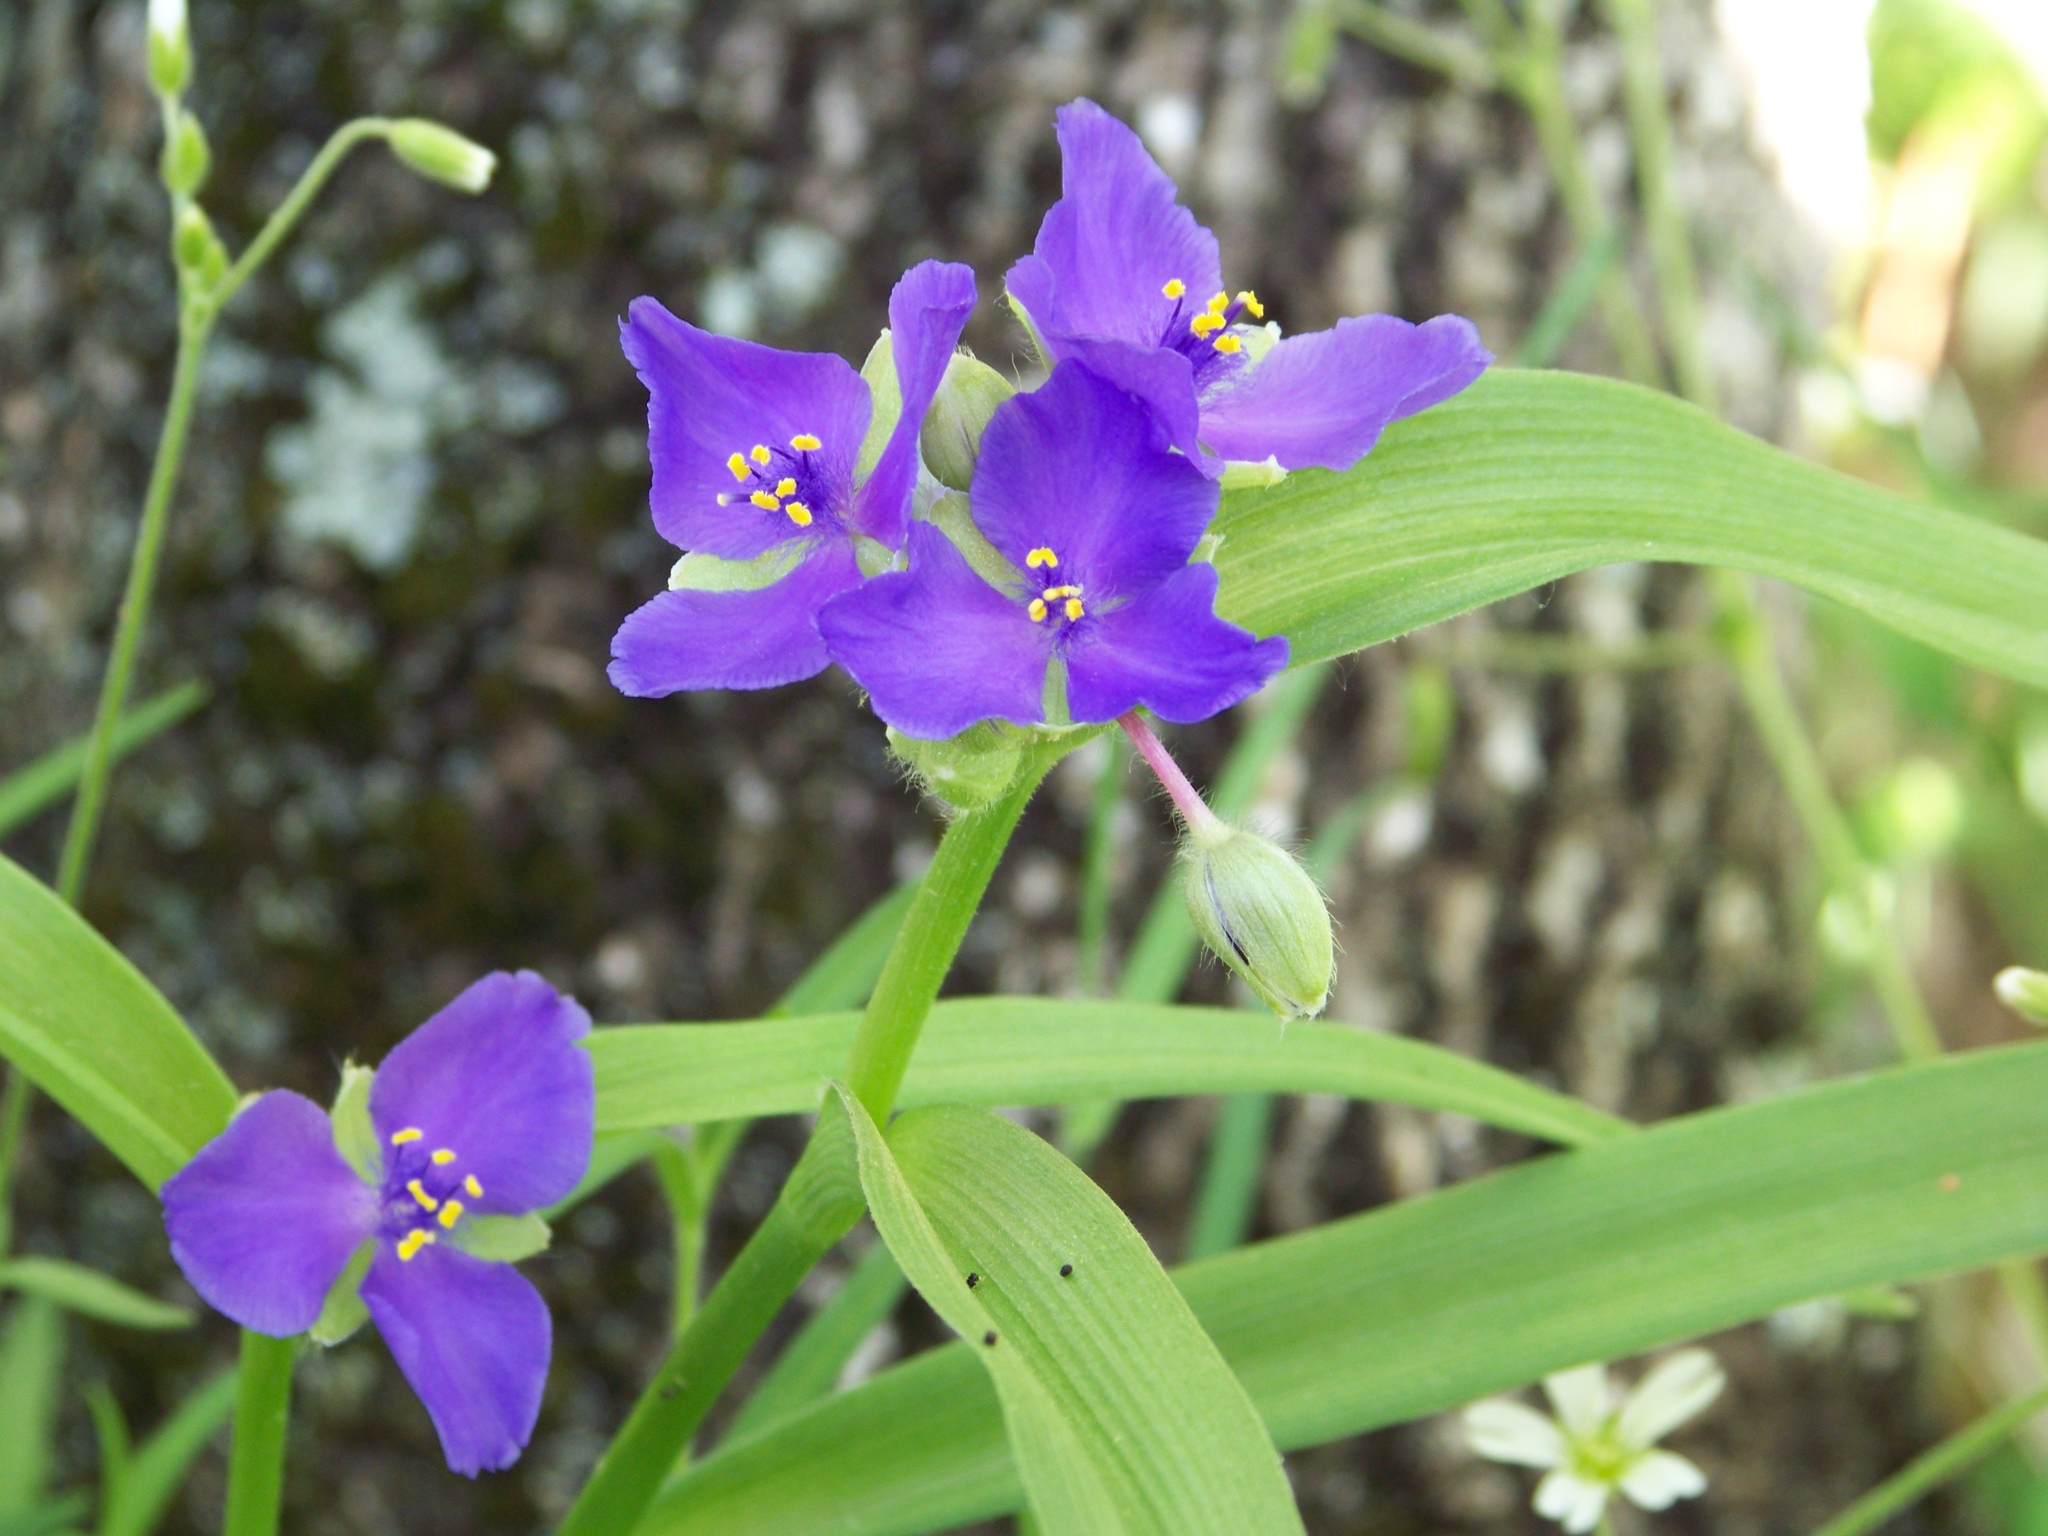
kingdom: Plantae
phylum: Tracheophyta
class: Liliopsida
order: Commelinales
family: Commelinaceae
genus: Tradescantia
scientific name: Tradescantia virginiana
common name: Spiderwort
